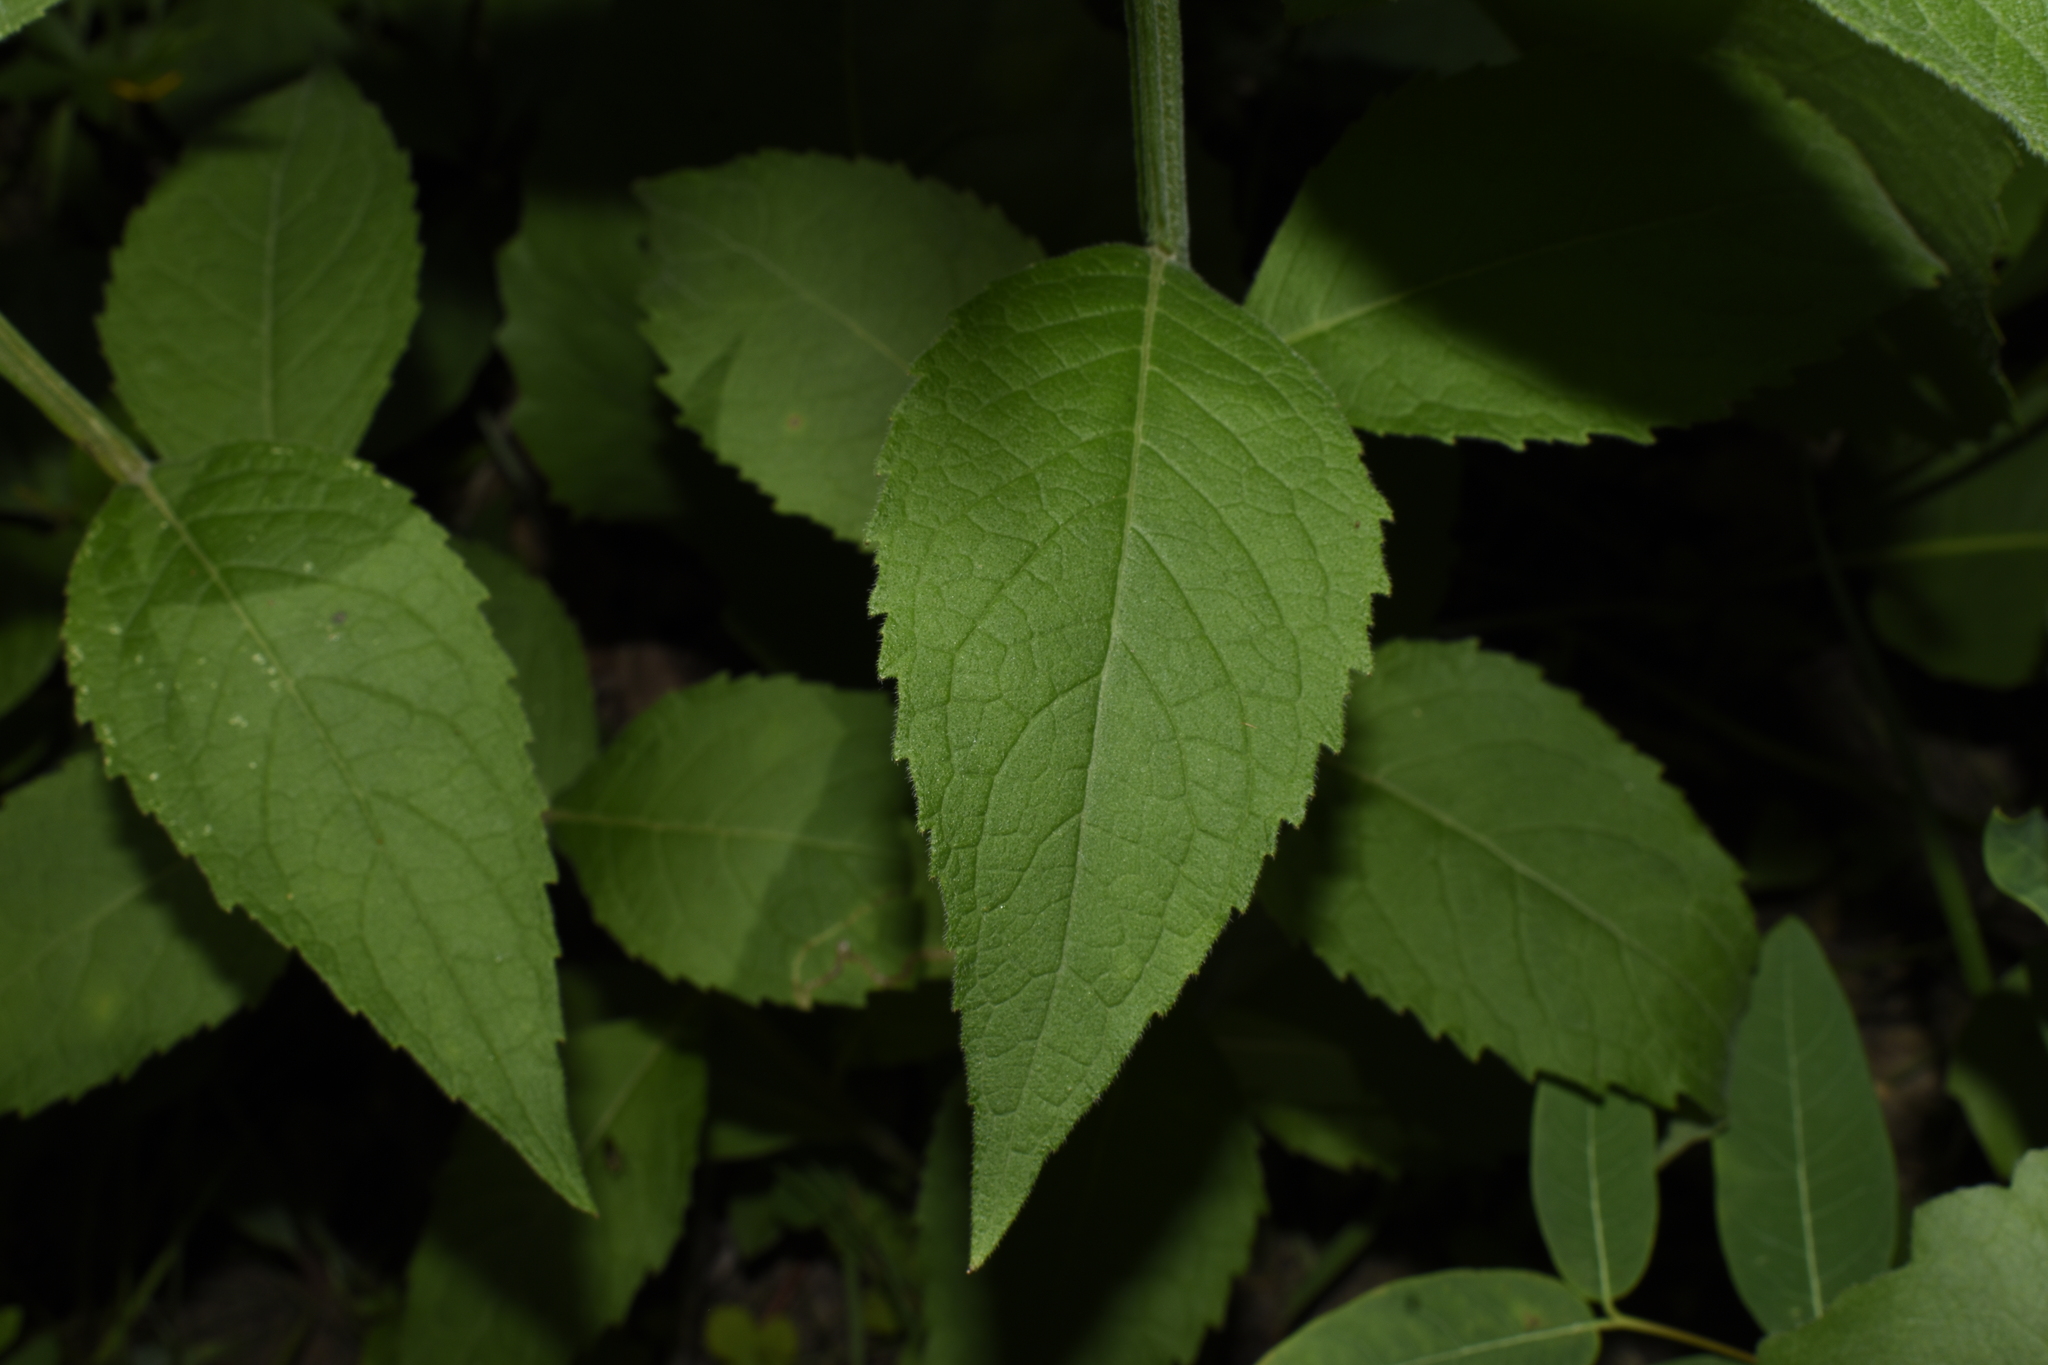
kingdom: Plantae
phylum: Tracheophyta
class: Magnoliopsida
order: Asterales
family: Asteraceae
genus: Verbesina
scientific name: Verbesina helianthoides
